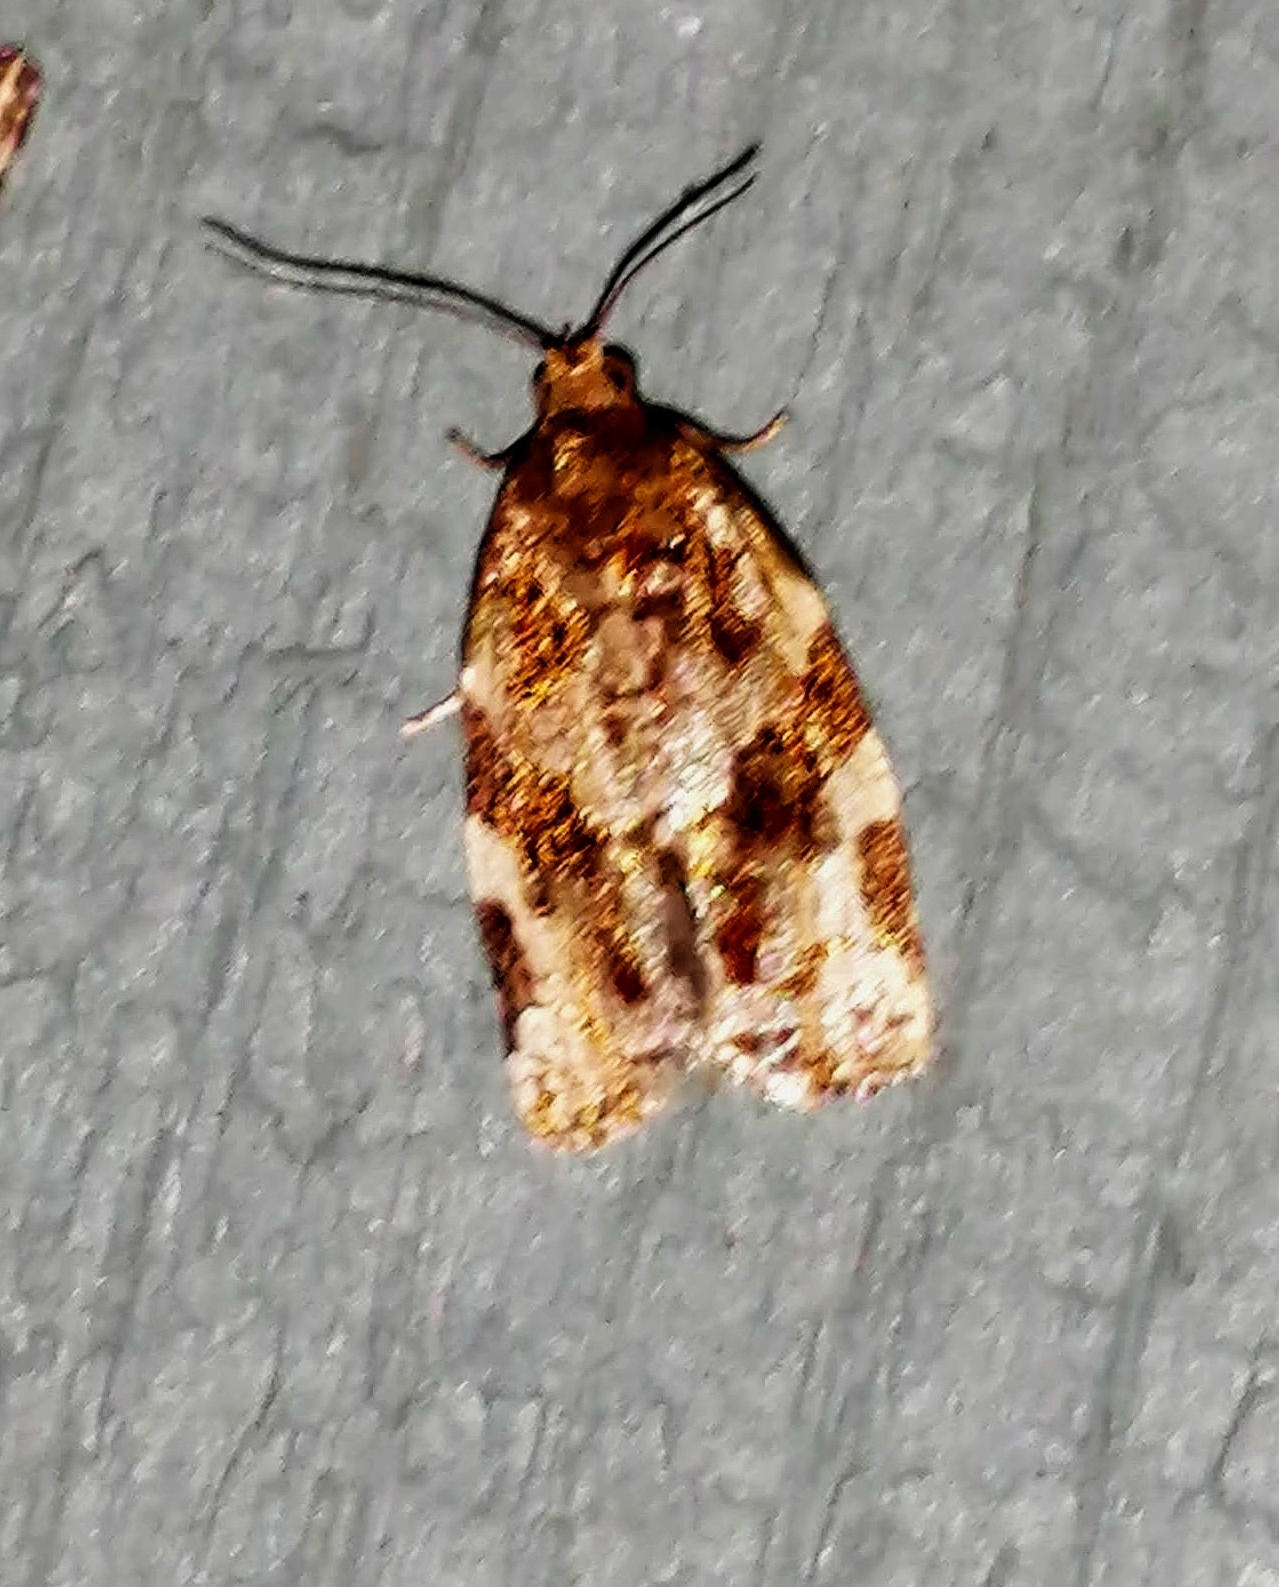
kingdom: Animalia
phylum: Arthropoda
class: Insecta
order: Lepidoptera
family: Tortricidae
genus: Archips
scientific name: Archips argyrospila
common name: Fruit-tree leafroller moth
